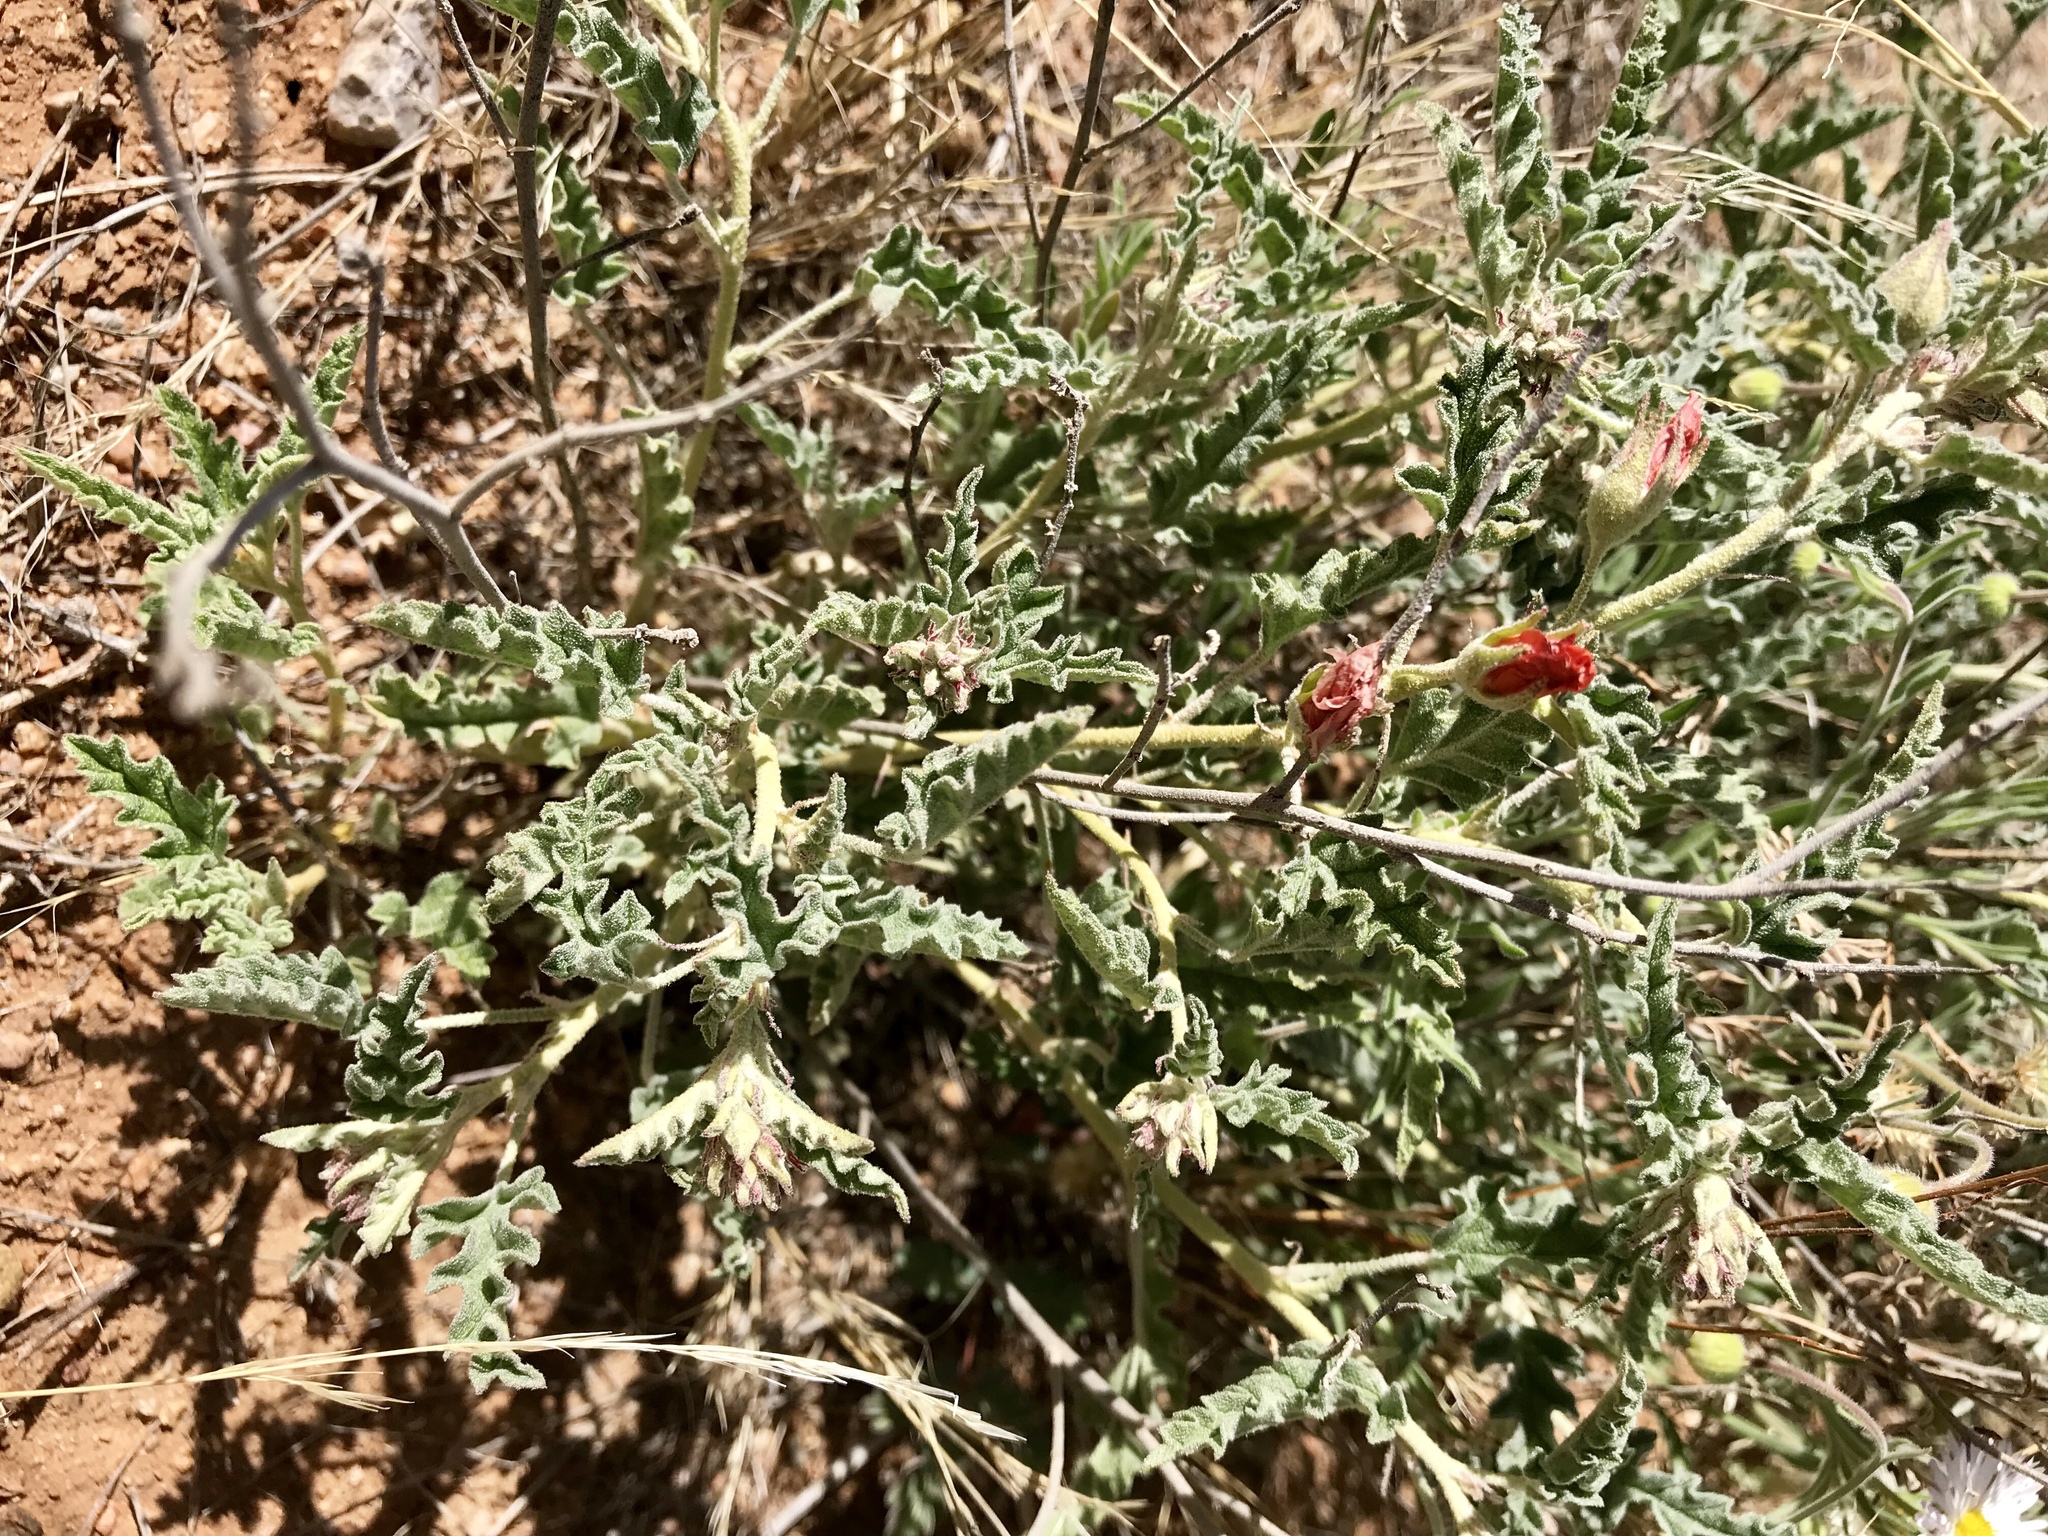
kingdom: Plantae
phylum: Tracheophyta
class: Magnoliopsida
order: Malvales
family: Malvaceae
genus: Sphaeralcea
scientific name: Sphaeralcea hastulata
